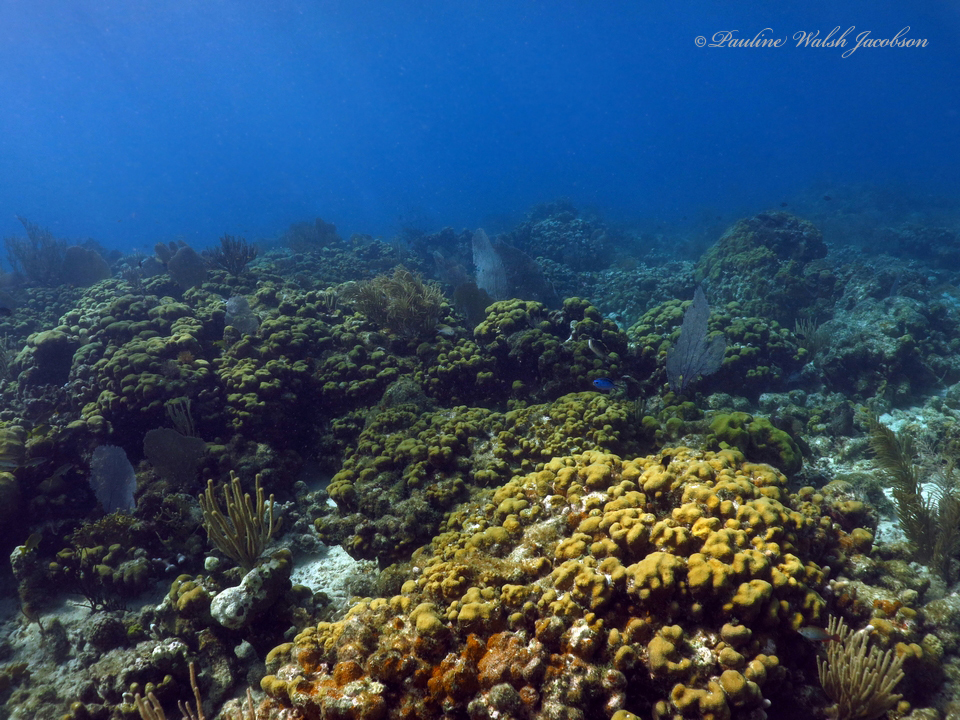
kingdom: Animalia
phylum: Cnidaria
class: Anthozoa
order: Scleractinia
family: Merulinidae
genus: Orbicella
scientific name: Orbicella annularis
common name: Boulder star coral
